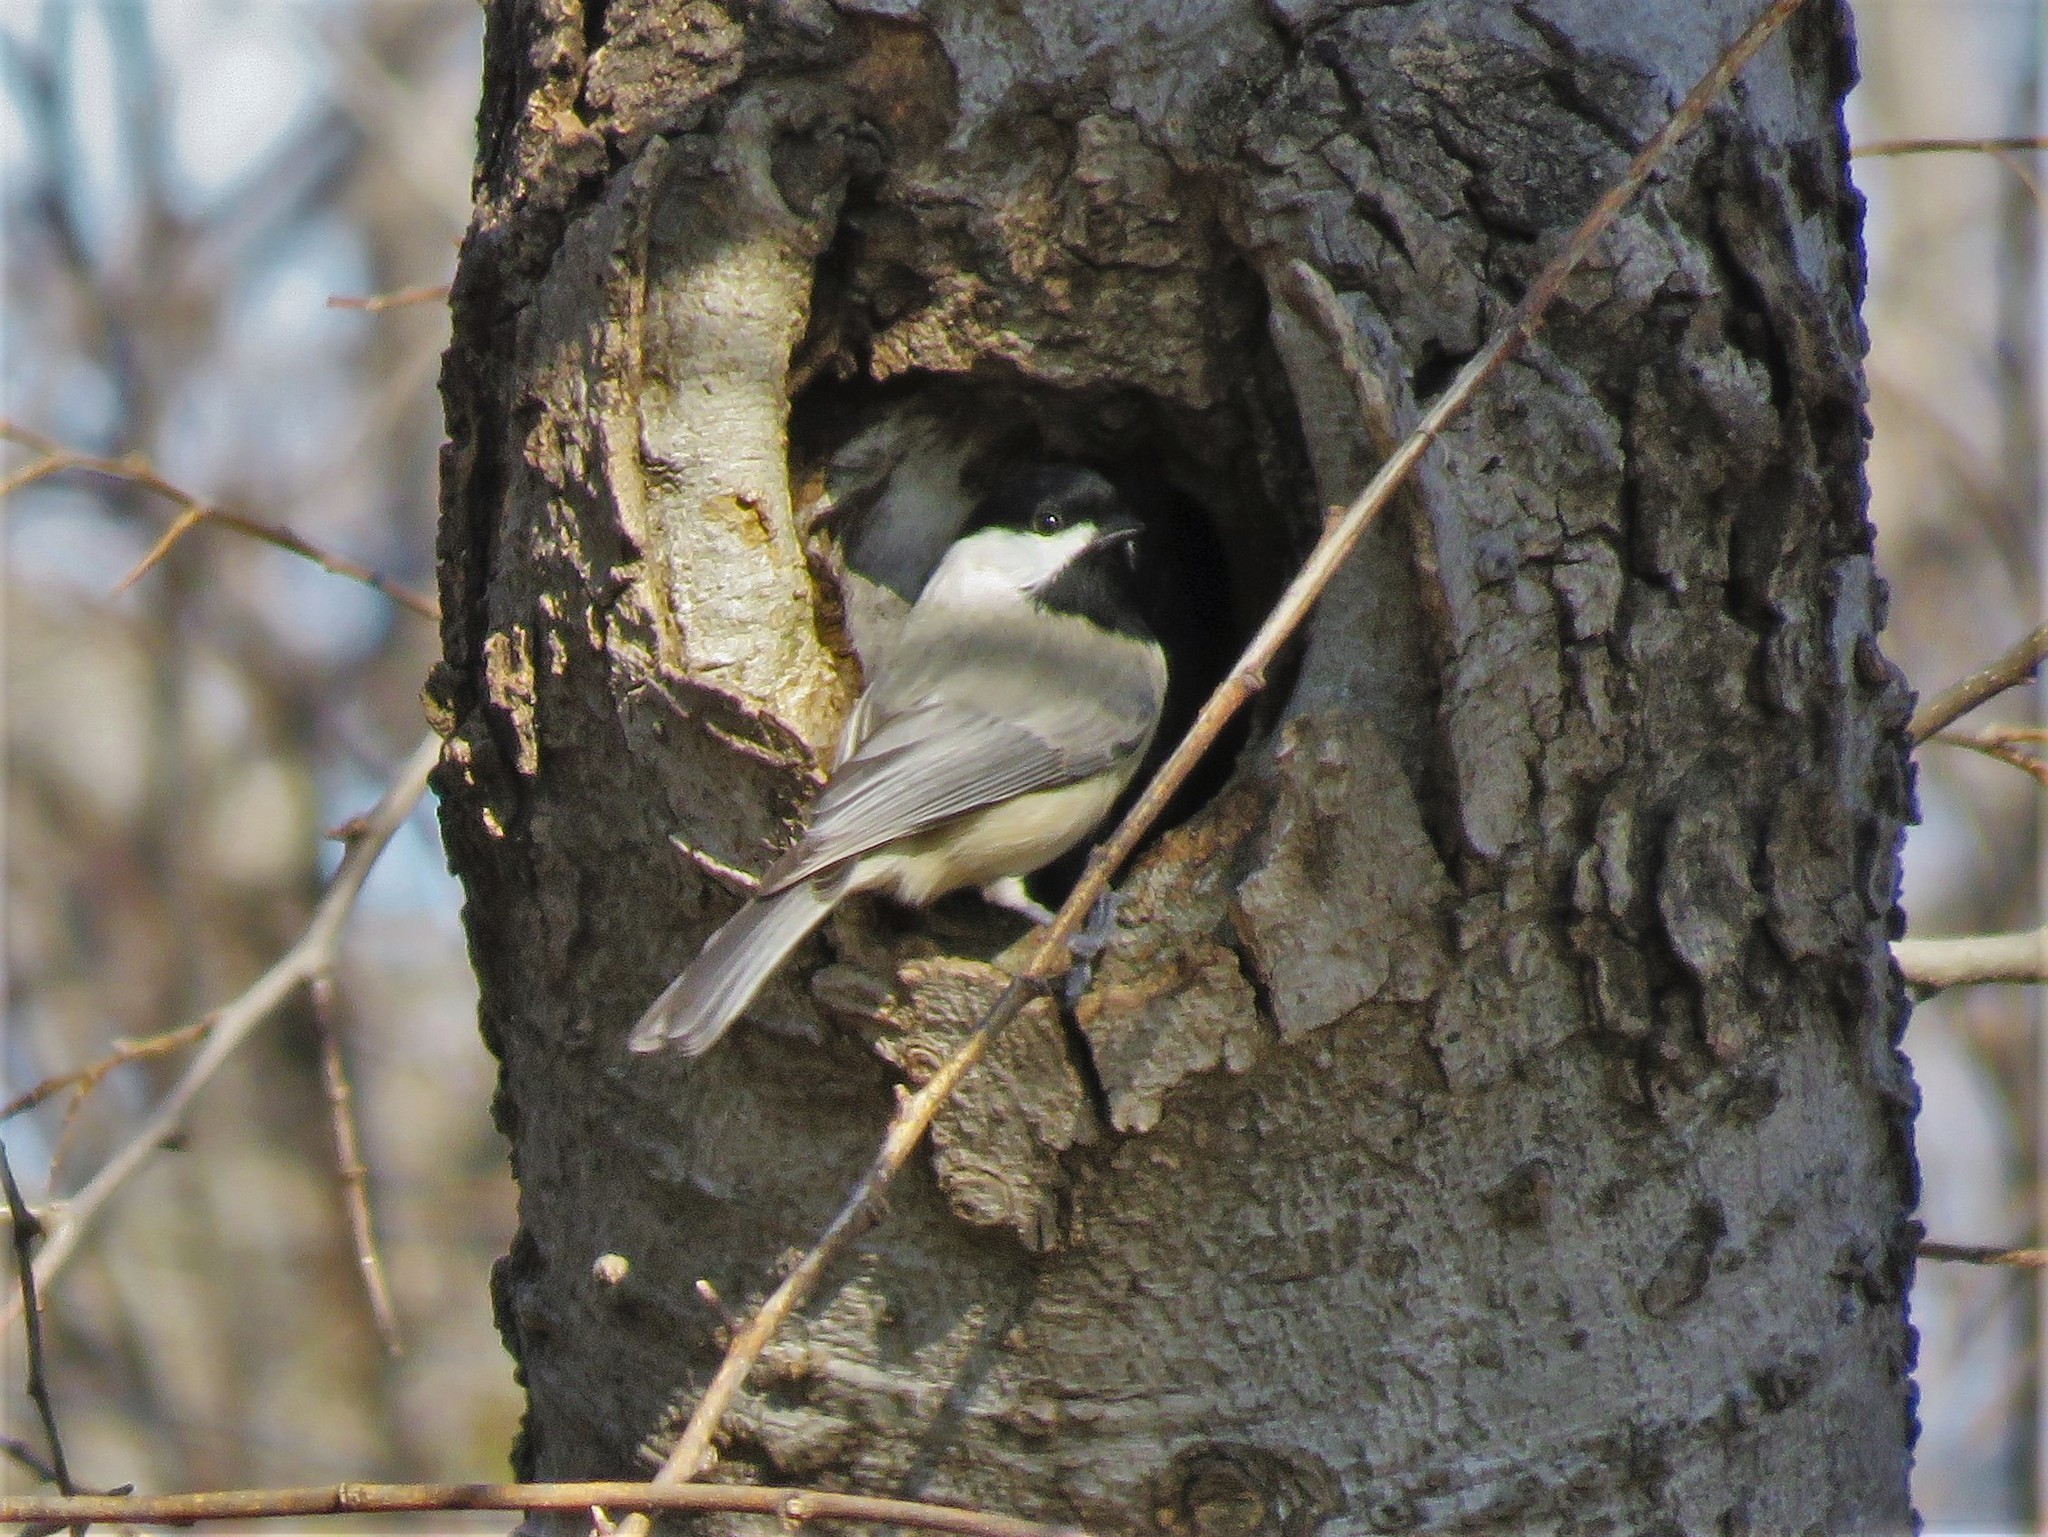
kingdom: Animalia
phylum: Chordata
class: Aves
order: Passeriformes
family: Paridae
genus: Poecile
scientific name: Poecile carolinensis
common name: Carolina chickadee
